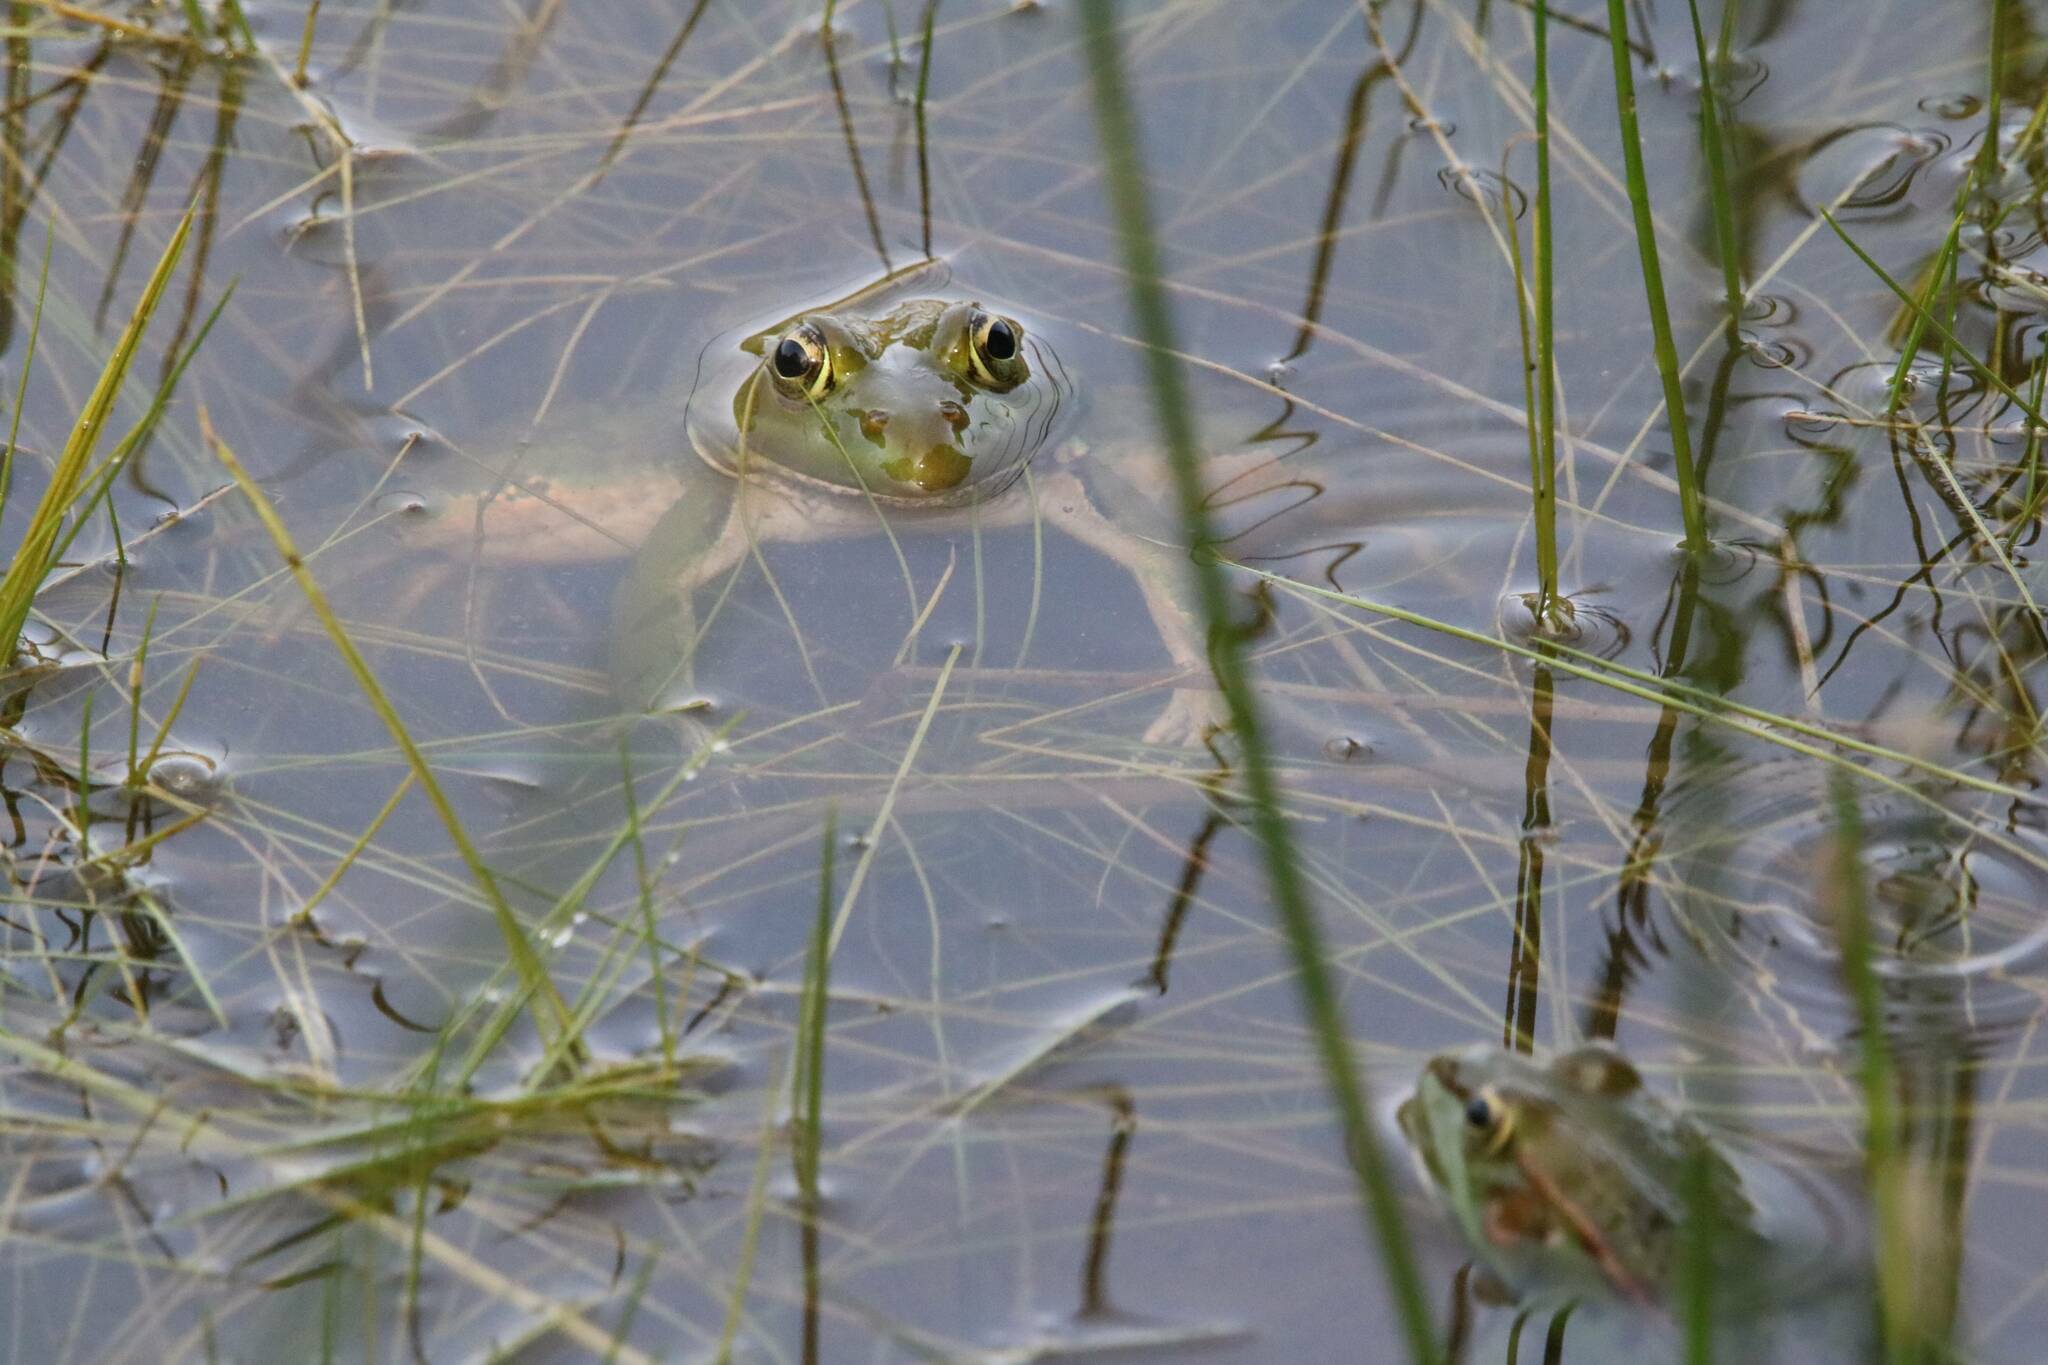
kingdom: Animalia
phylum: Chordata
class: Amphibia
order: Anura
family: Ranidae
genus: Pelophylax
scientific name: Pelophylax saharicus
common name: Sahara frog
